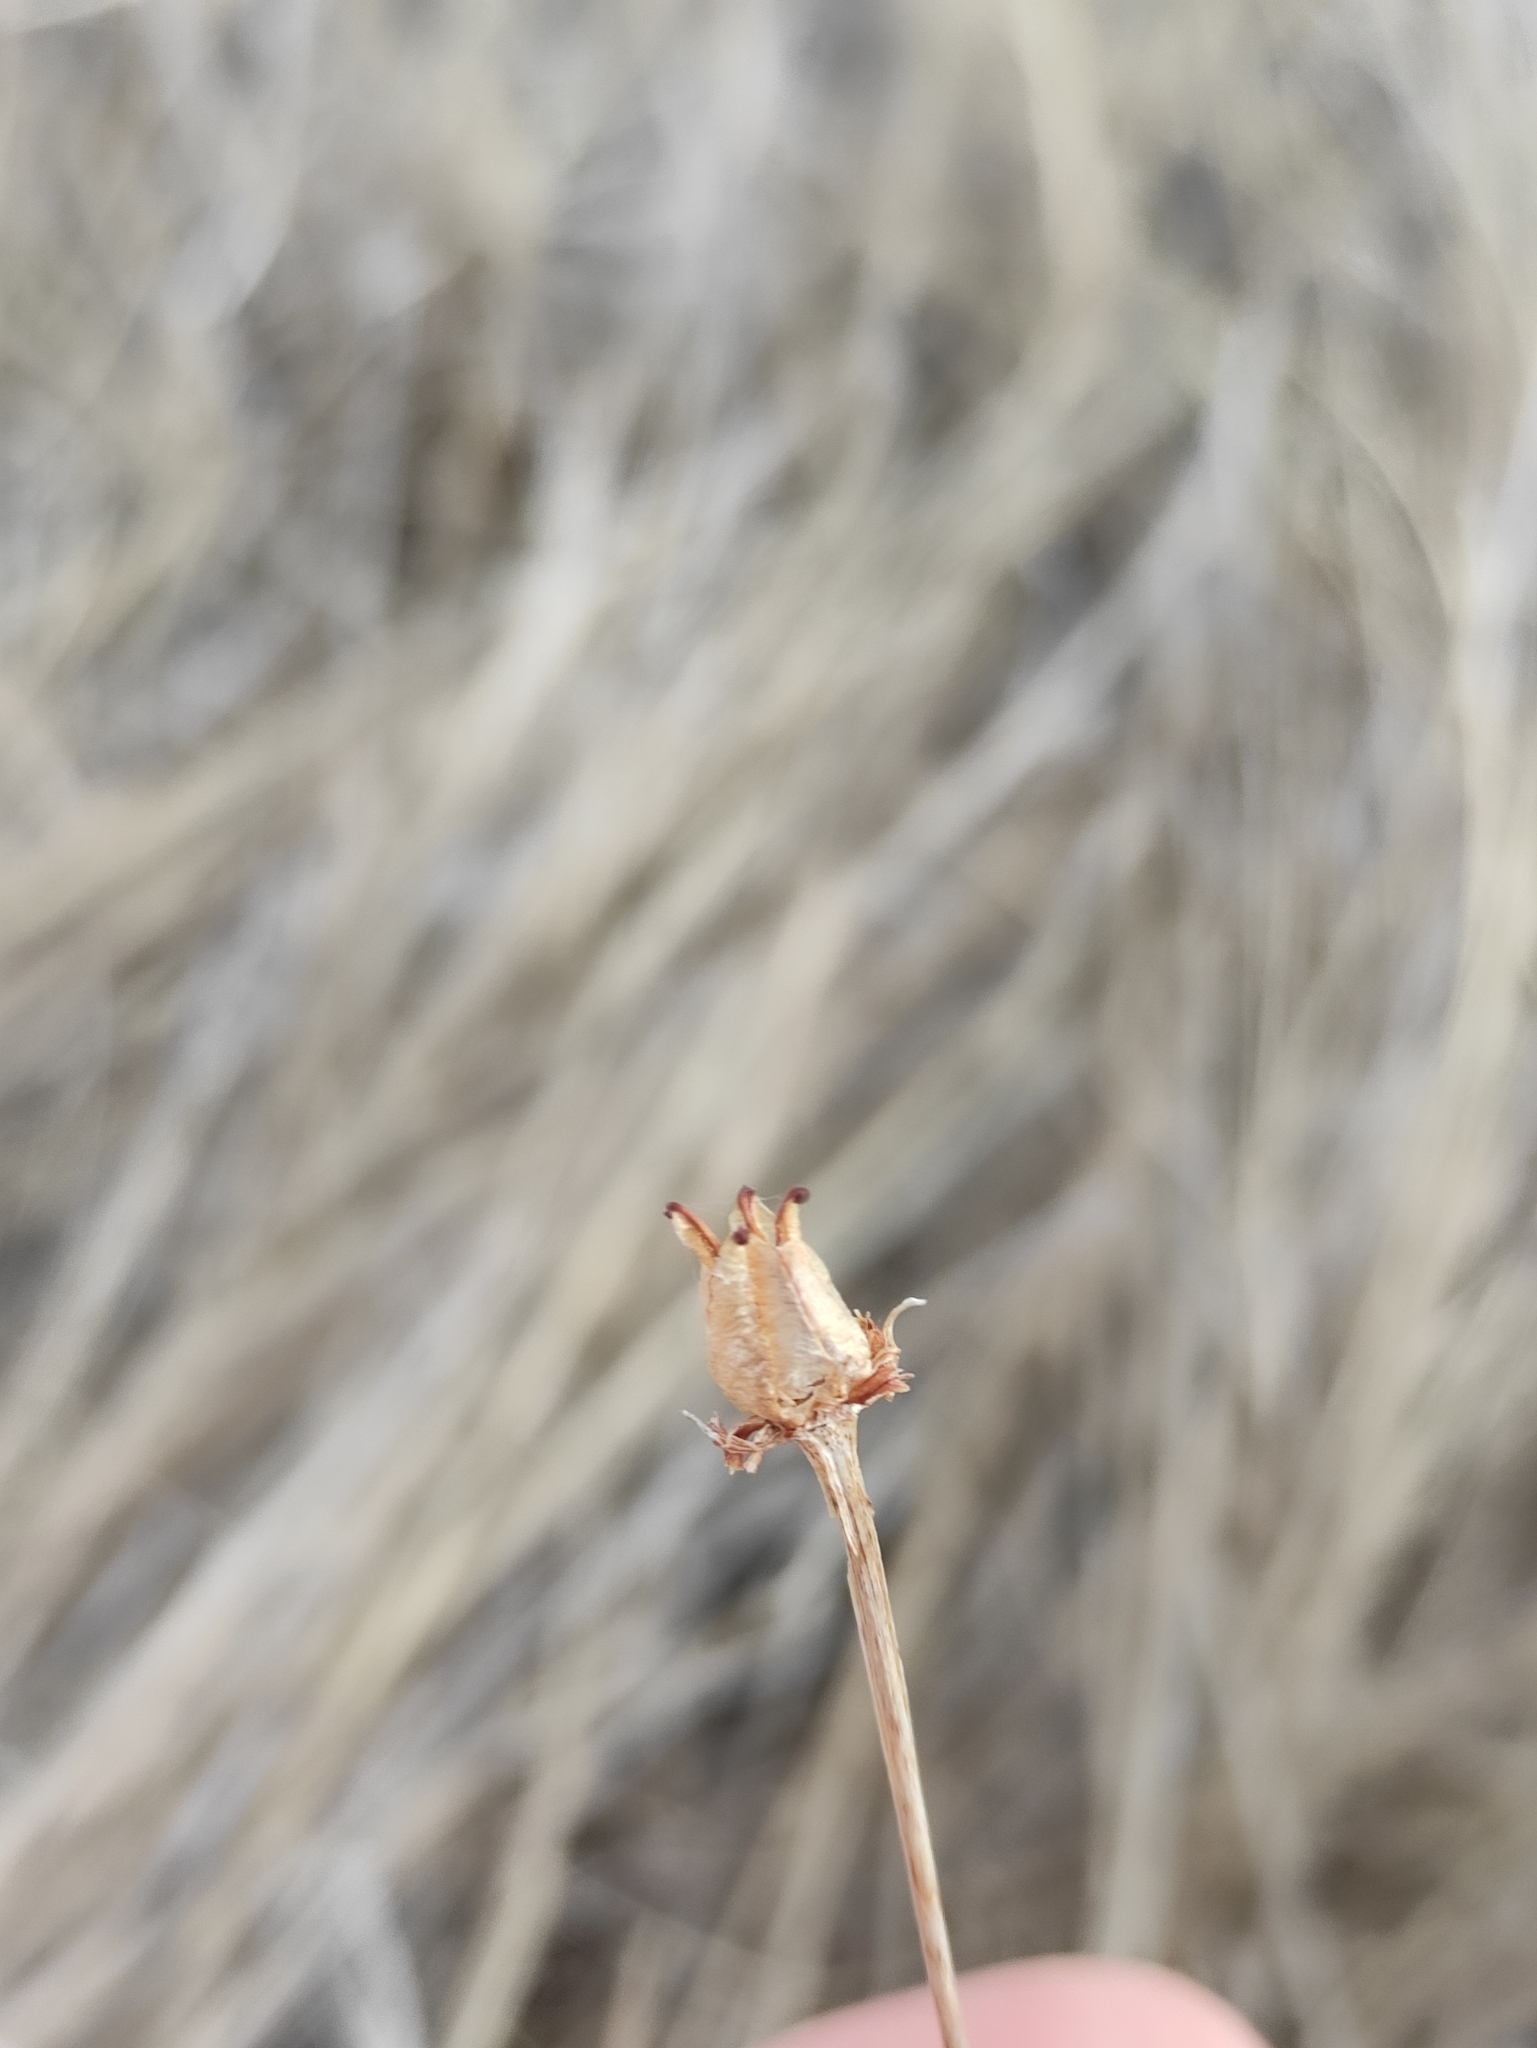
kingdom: Plantae
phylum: Tracheophyta
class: Magnoliopsida
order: Celastrales
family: Parnassiaceae
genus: Parnassia
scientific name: Parnassia palustris
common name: Grass-of-parnassus
